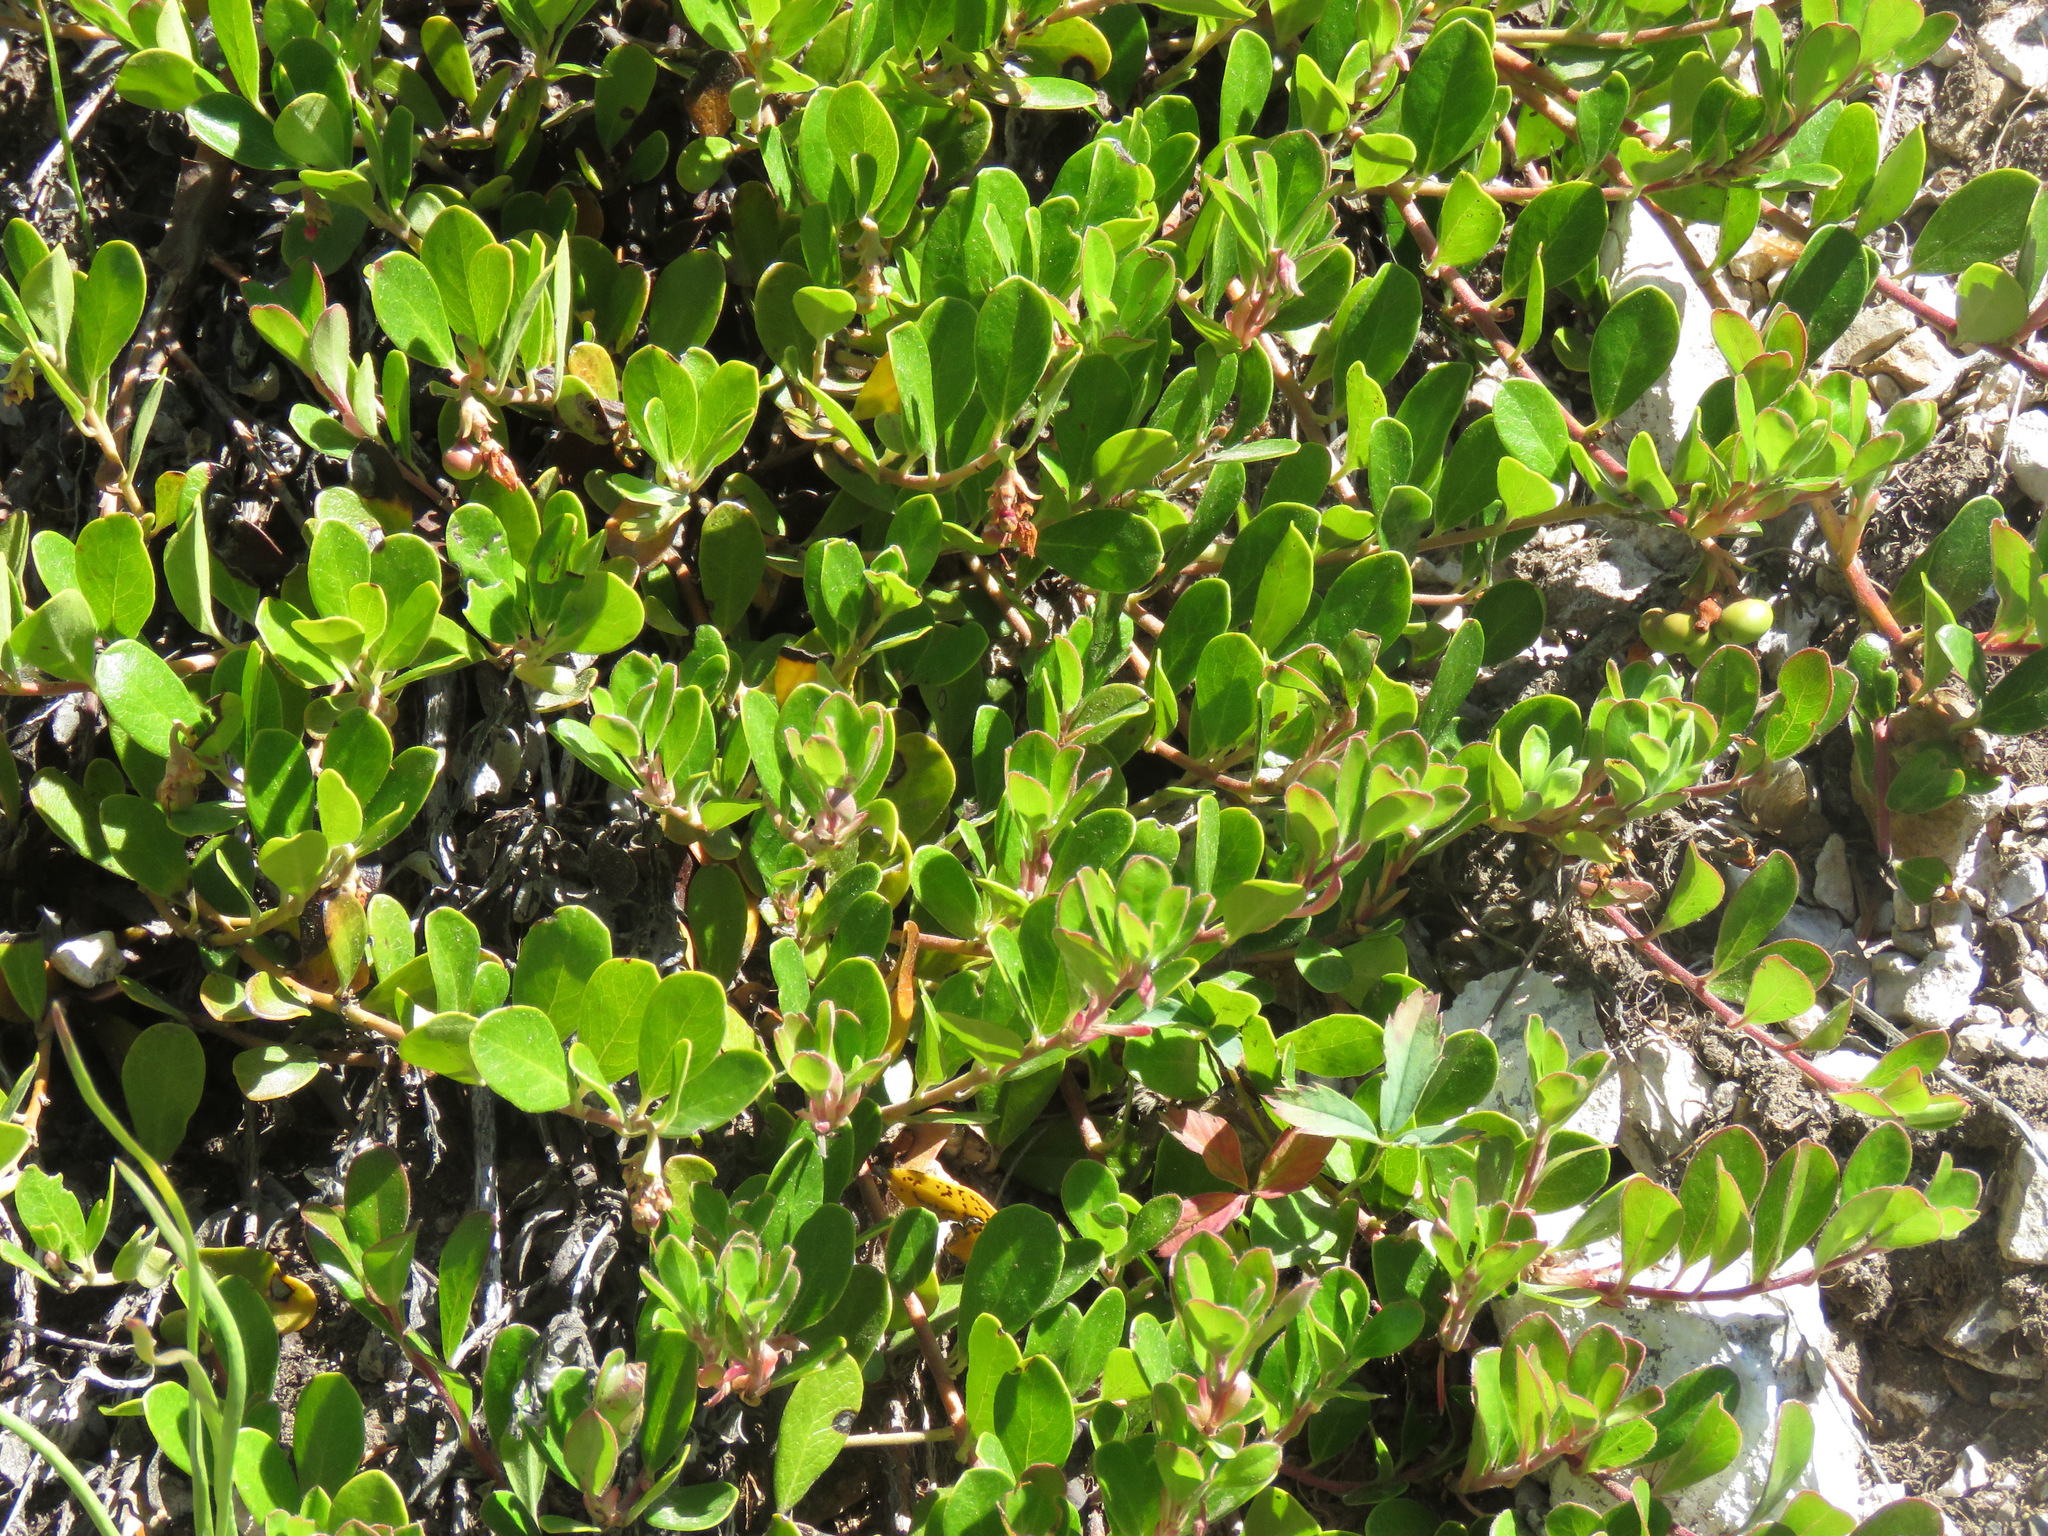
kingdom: Plantae
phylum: Tracheophyta
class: Magnoliopsida
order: Ericales
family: Ericaceae
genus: Arctostaphylos
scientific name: Arctostaphylos uva-ursi
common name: Bearberry
